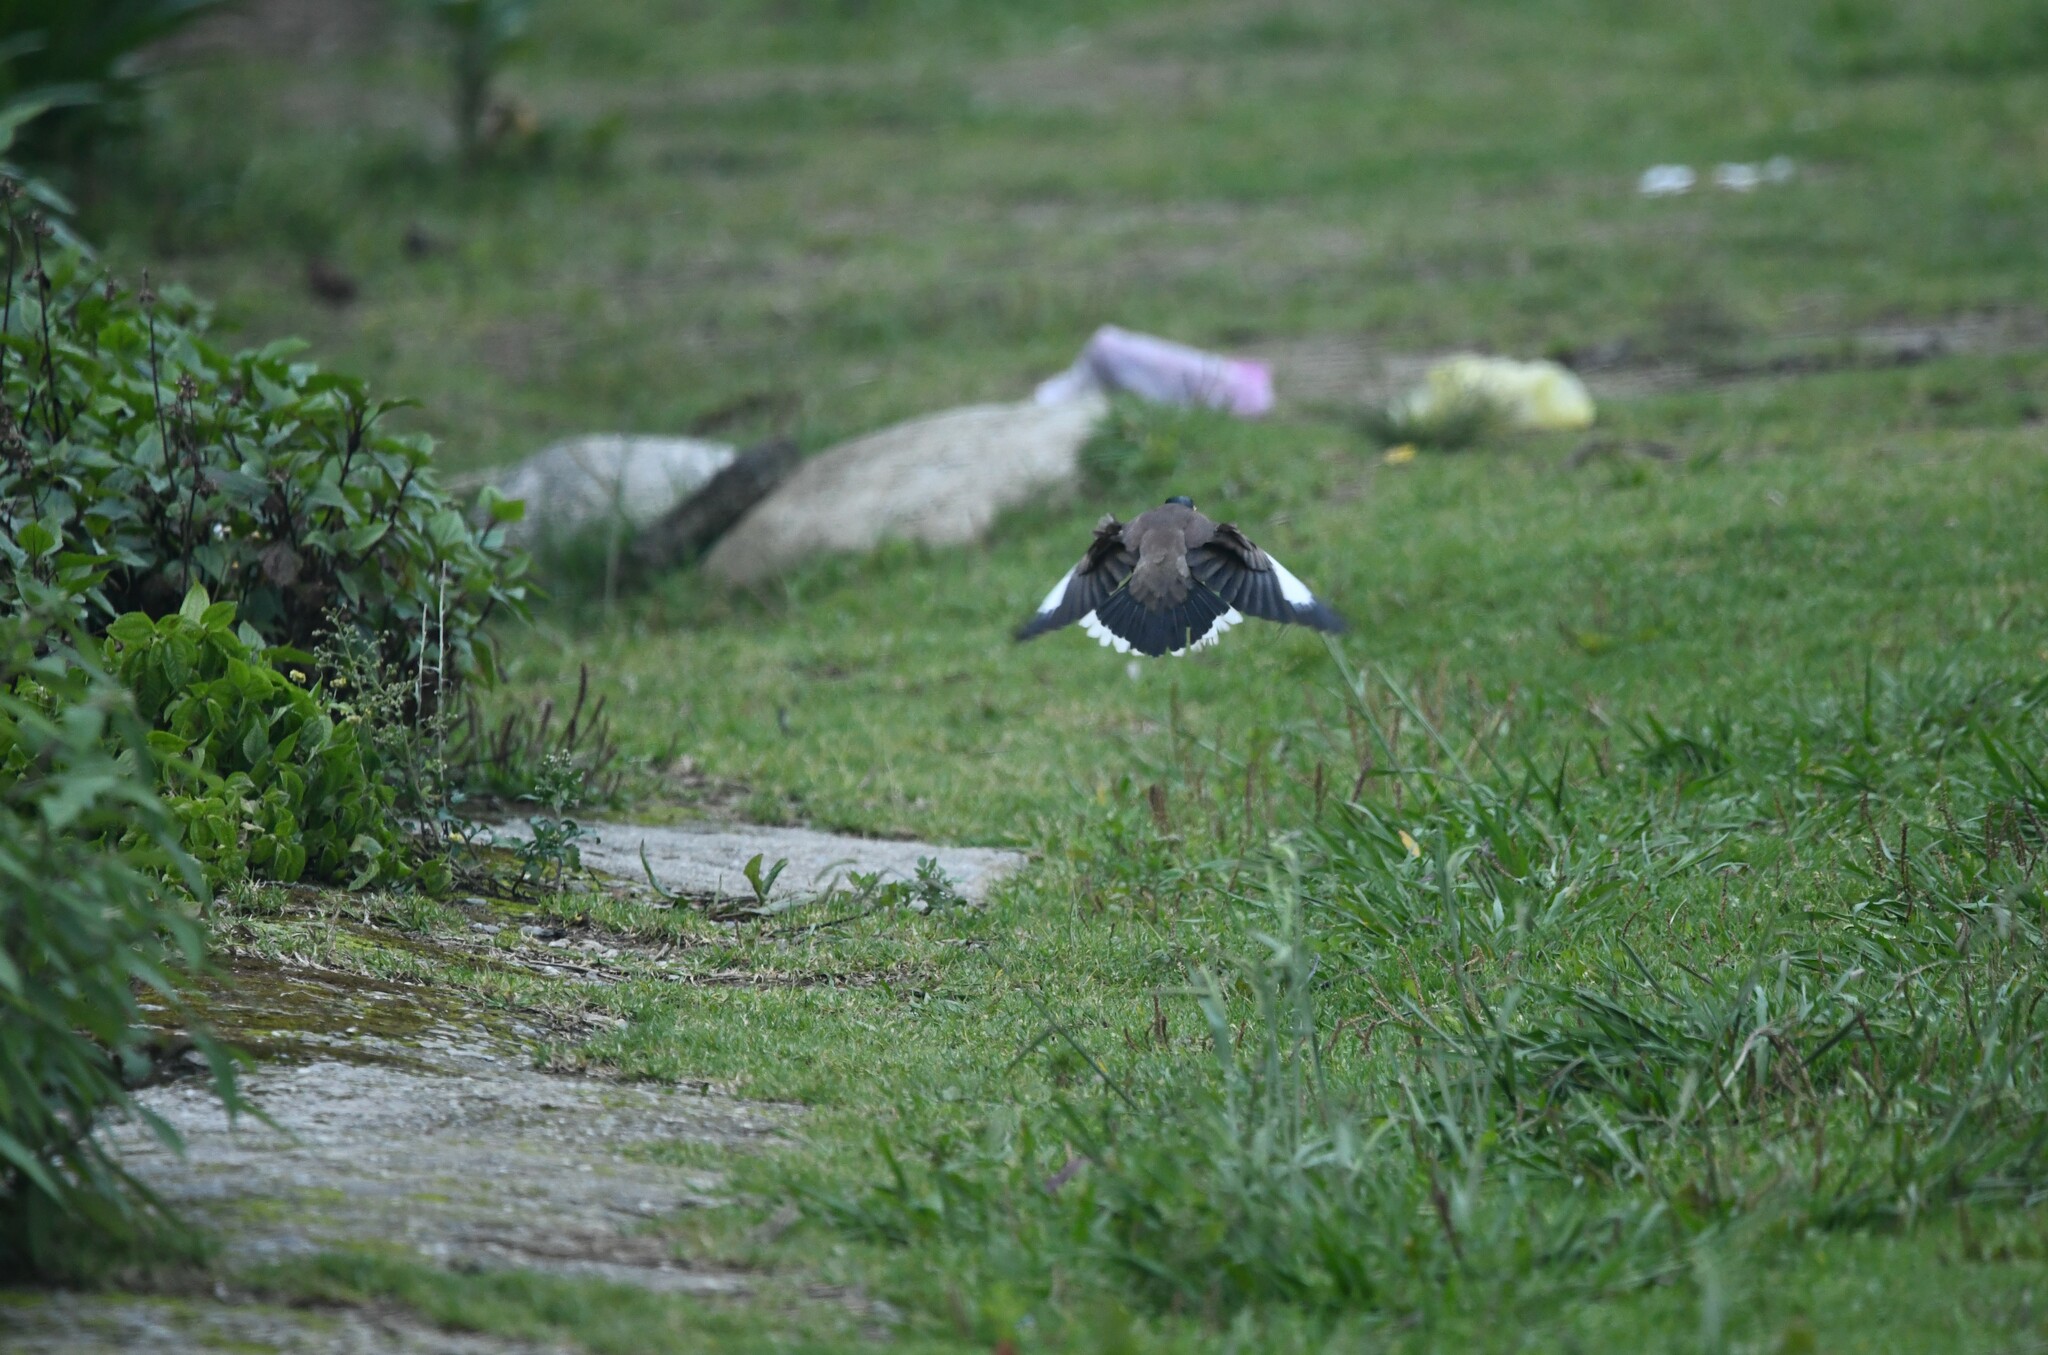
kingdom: Animalia
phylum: Chordata
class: Aves
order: Passeriformes
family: Sturnidae
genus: Acridotheres
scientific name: Acridotheres tristis
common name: Common myna
